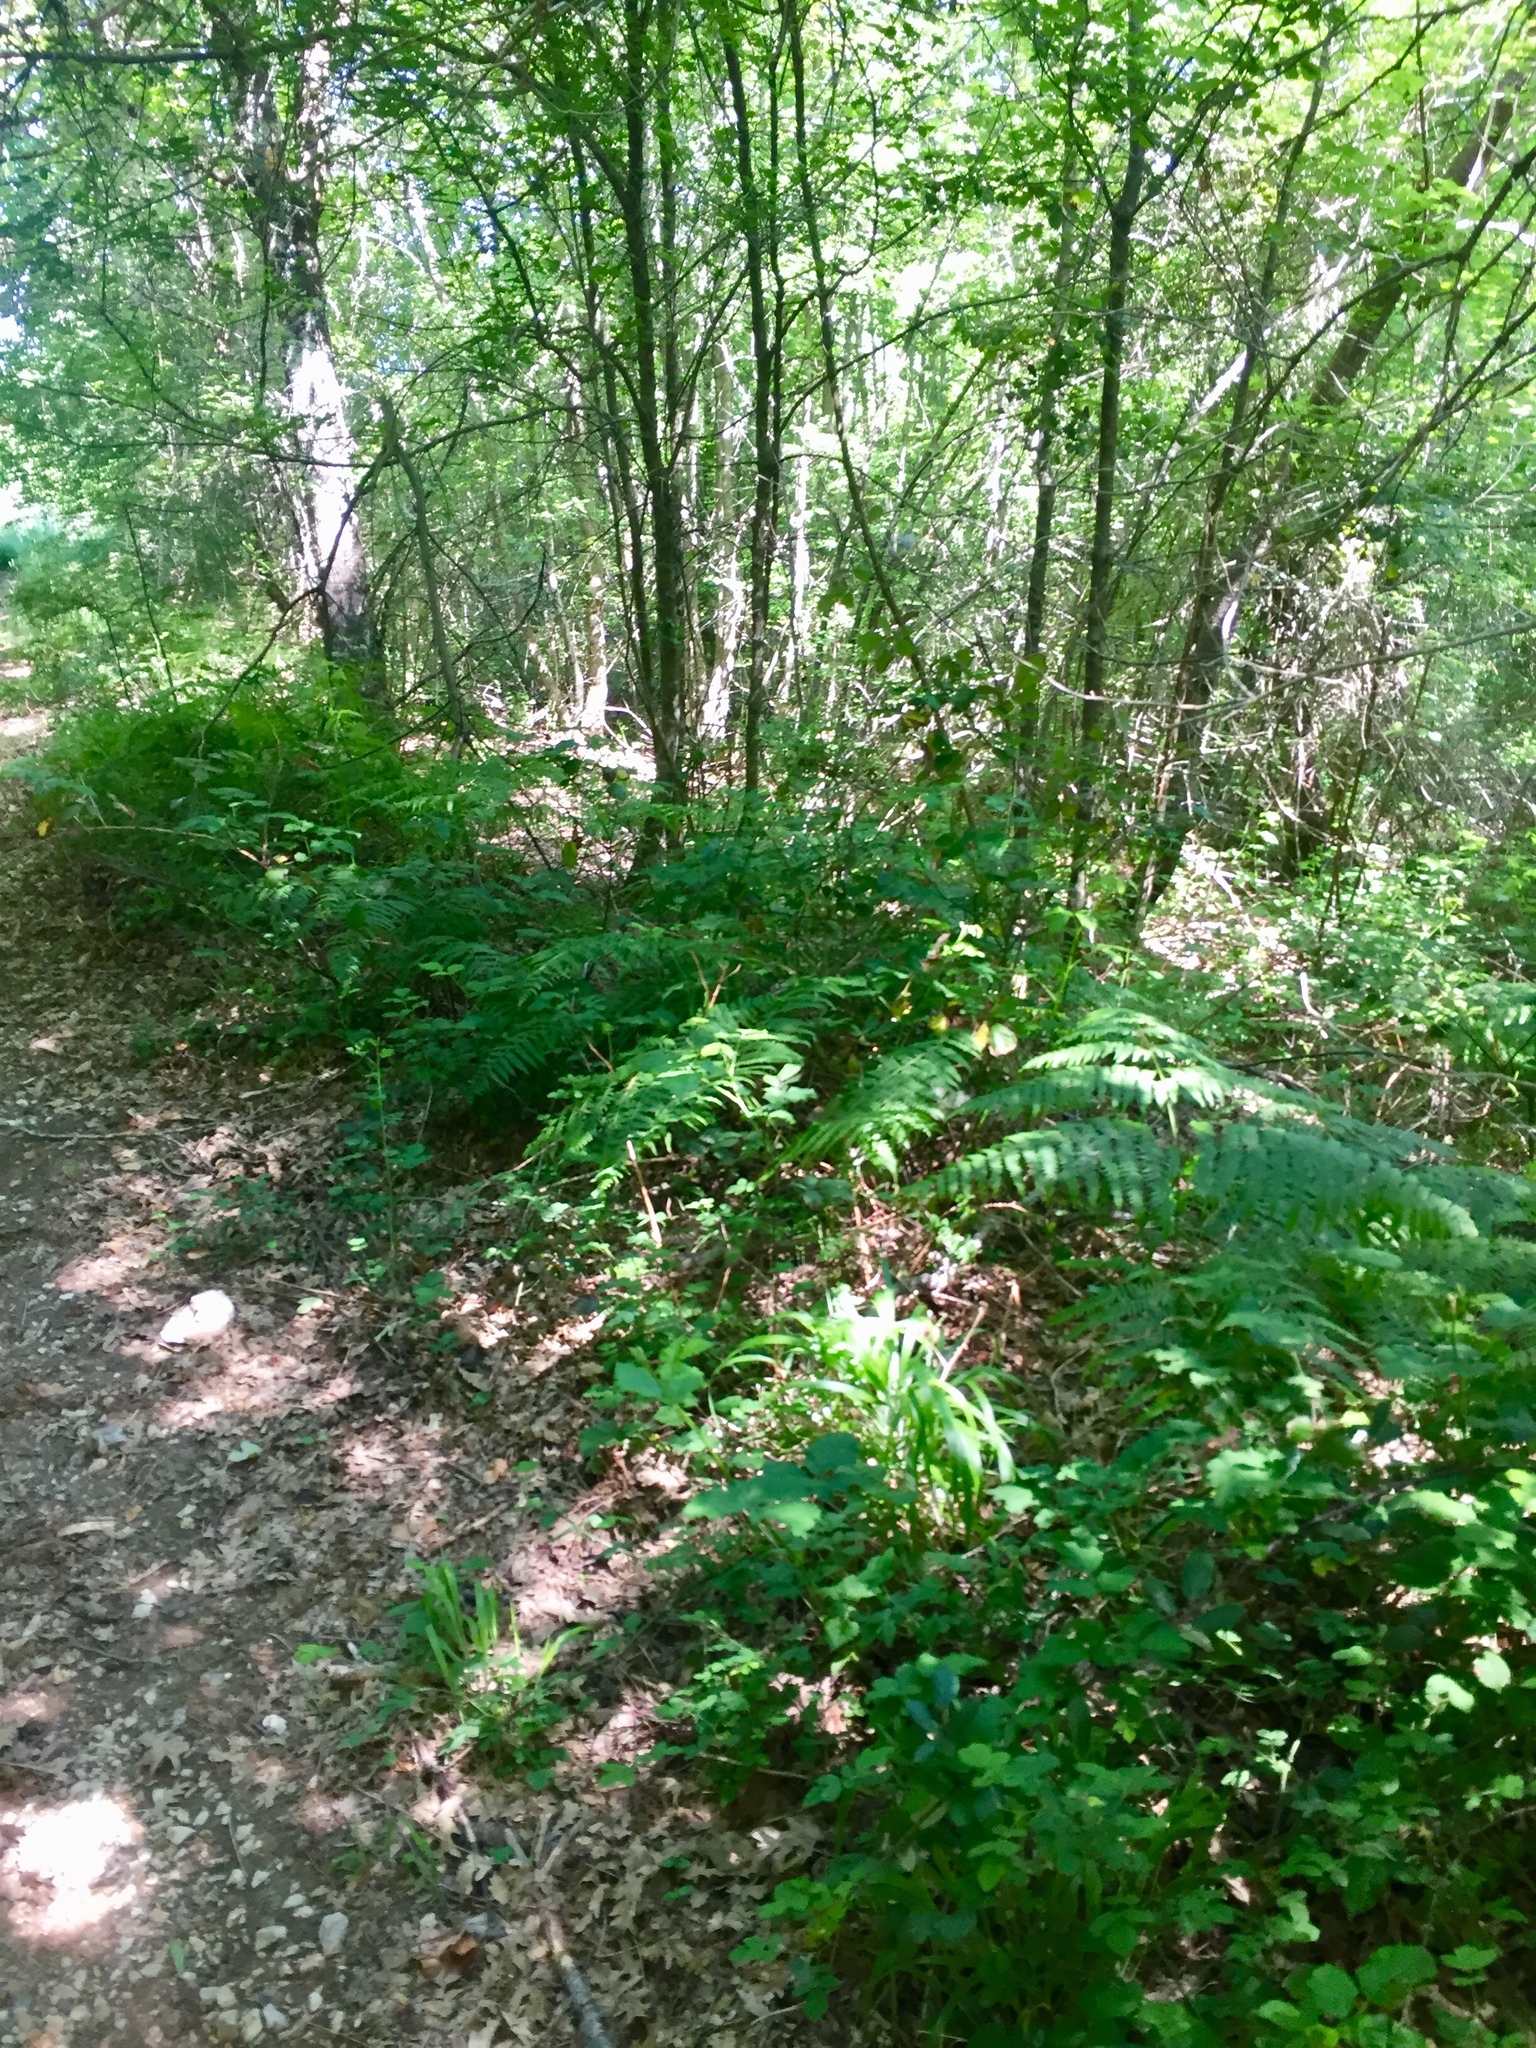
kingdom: Plantae
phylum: Tracheophyta
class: Polypodiopsida
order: Polypodiales
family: Dennstaedtiaceae
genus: Pteridium
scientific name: Pteridium aquilinum
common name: Bracken
